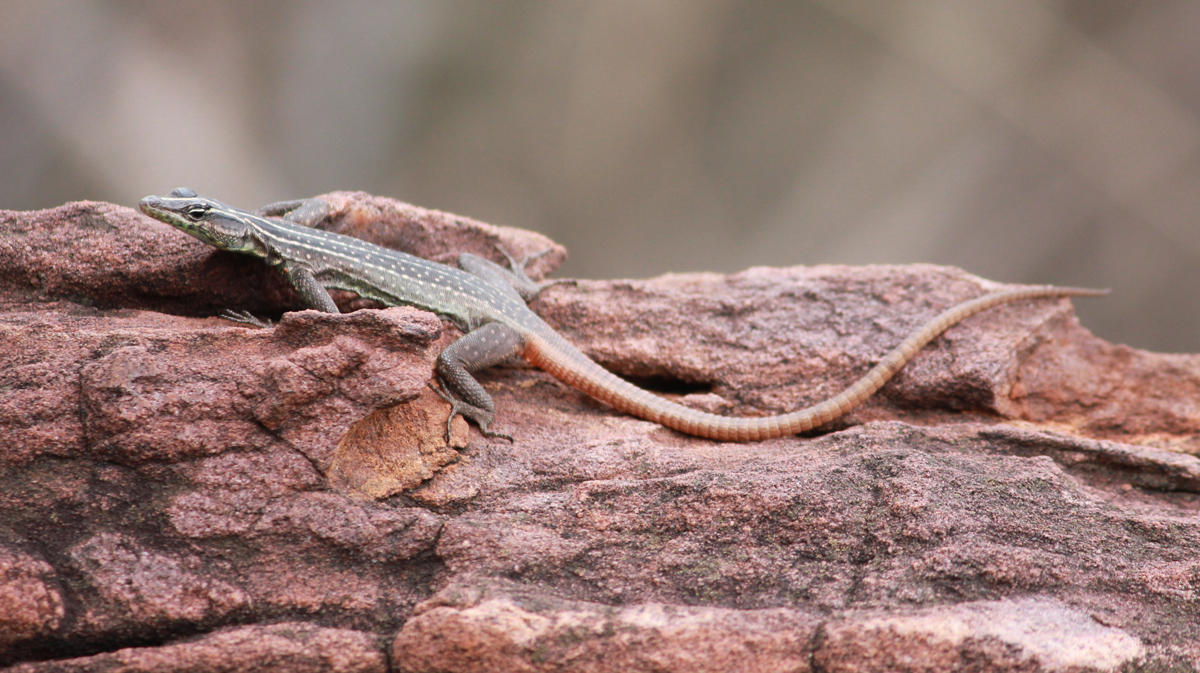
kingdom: Animalia
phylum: Chordata
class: Squamata
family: Cordylidae
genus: Platysaurus
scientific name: Platysaurus relictus
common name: Soutpansberg flat lizard
